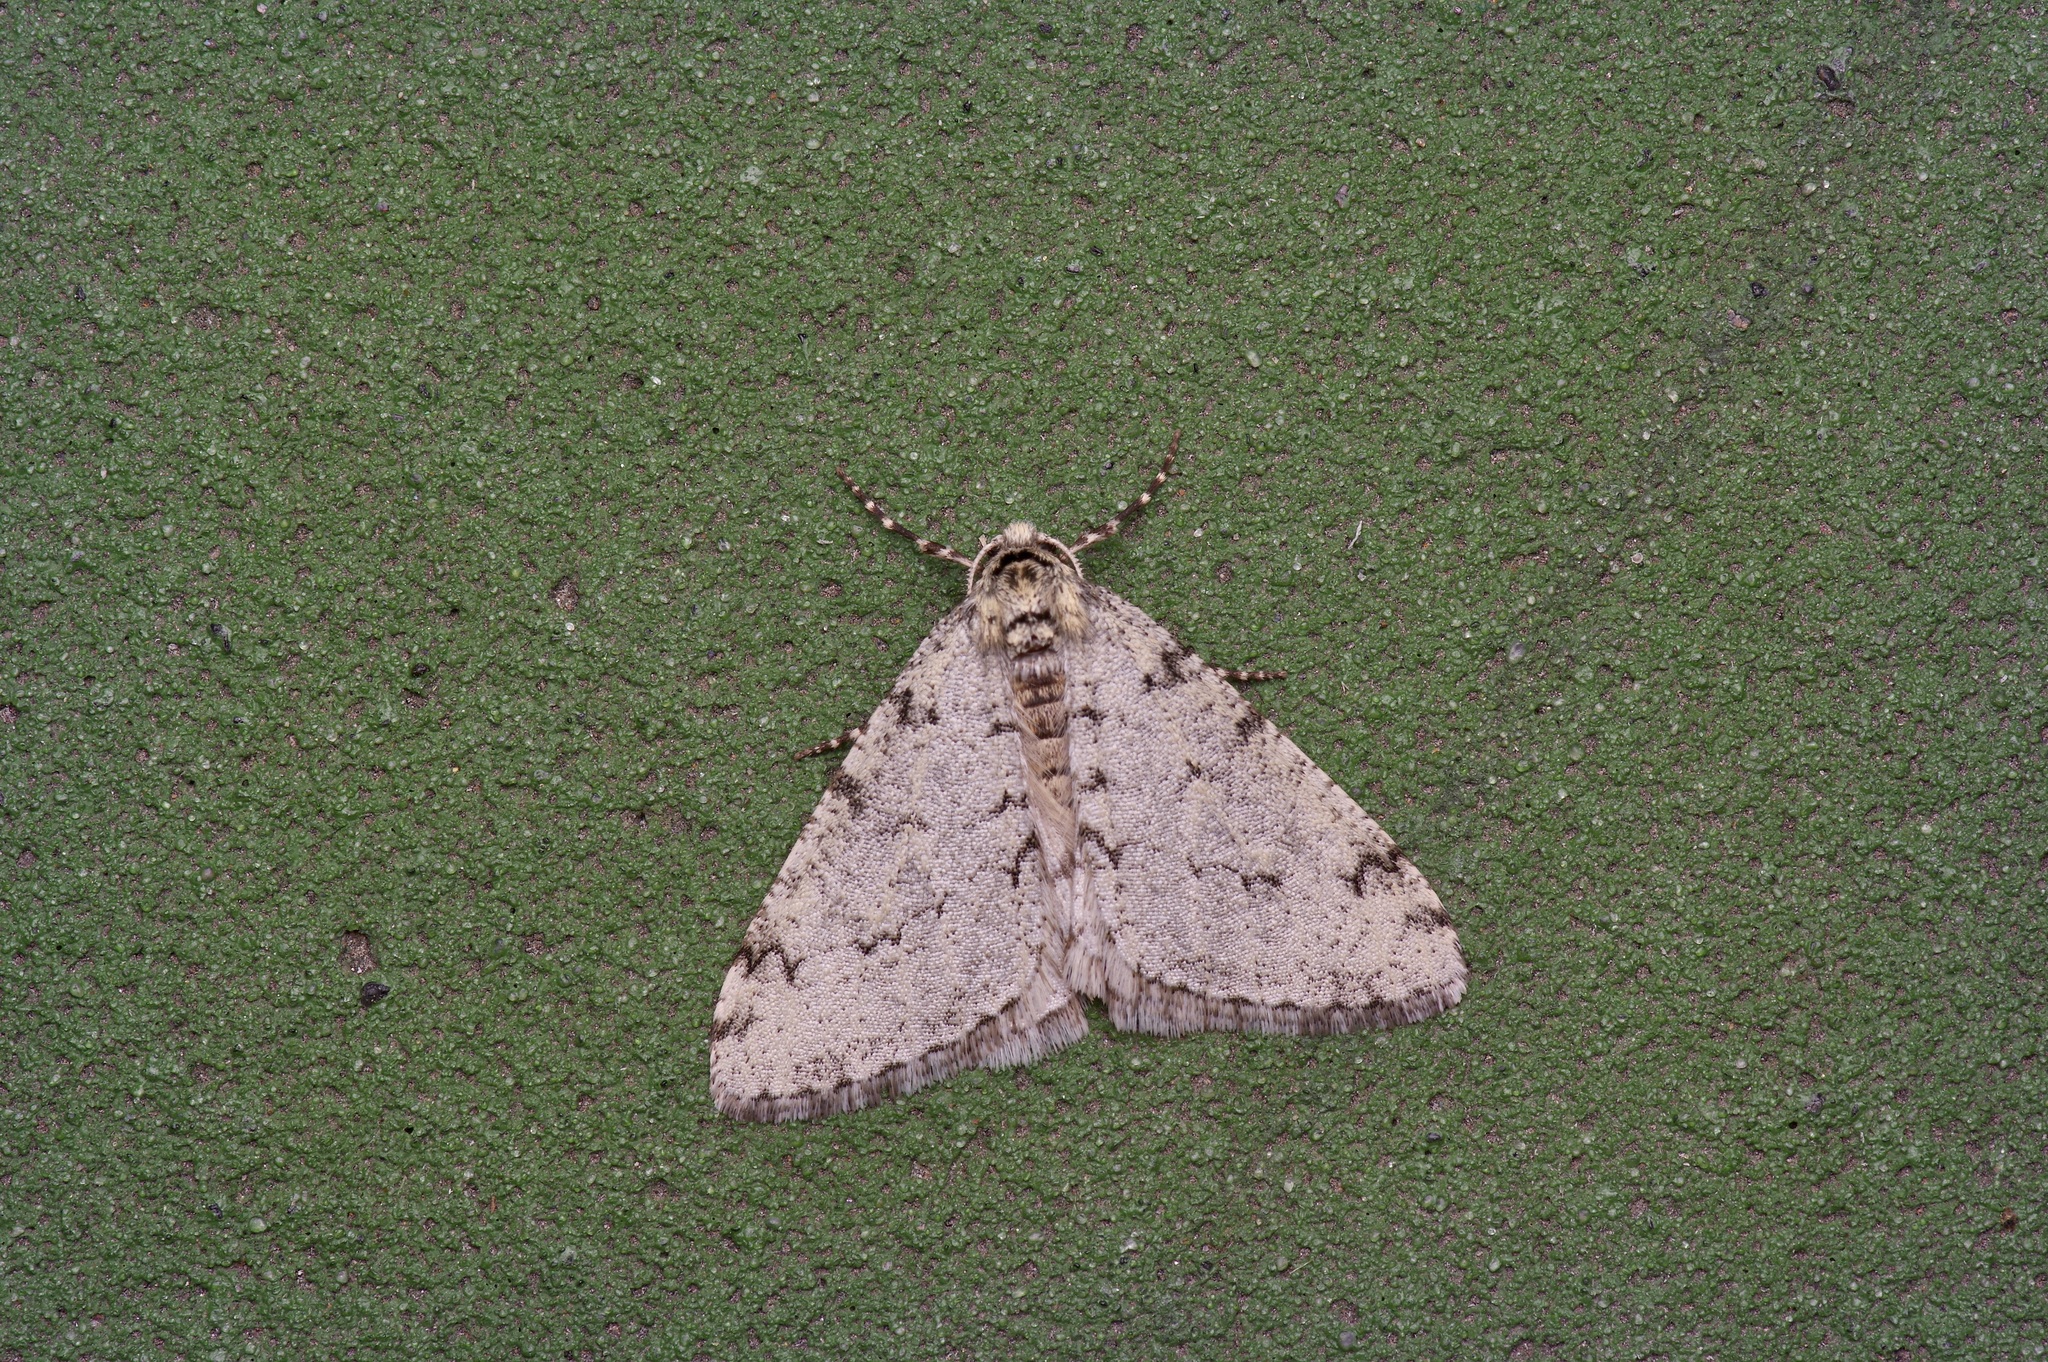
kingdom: Animalia
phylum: Arthropoda
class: Insecta
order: Lepidoptera
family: Geometridae
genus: Phigalia
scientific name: Phigalia strigataria
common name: Small phigalia
